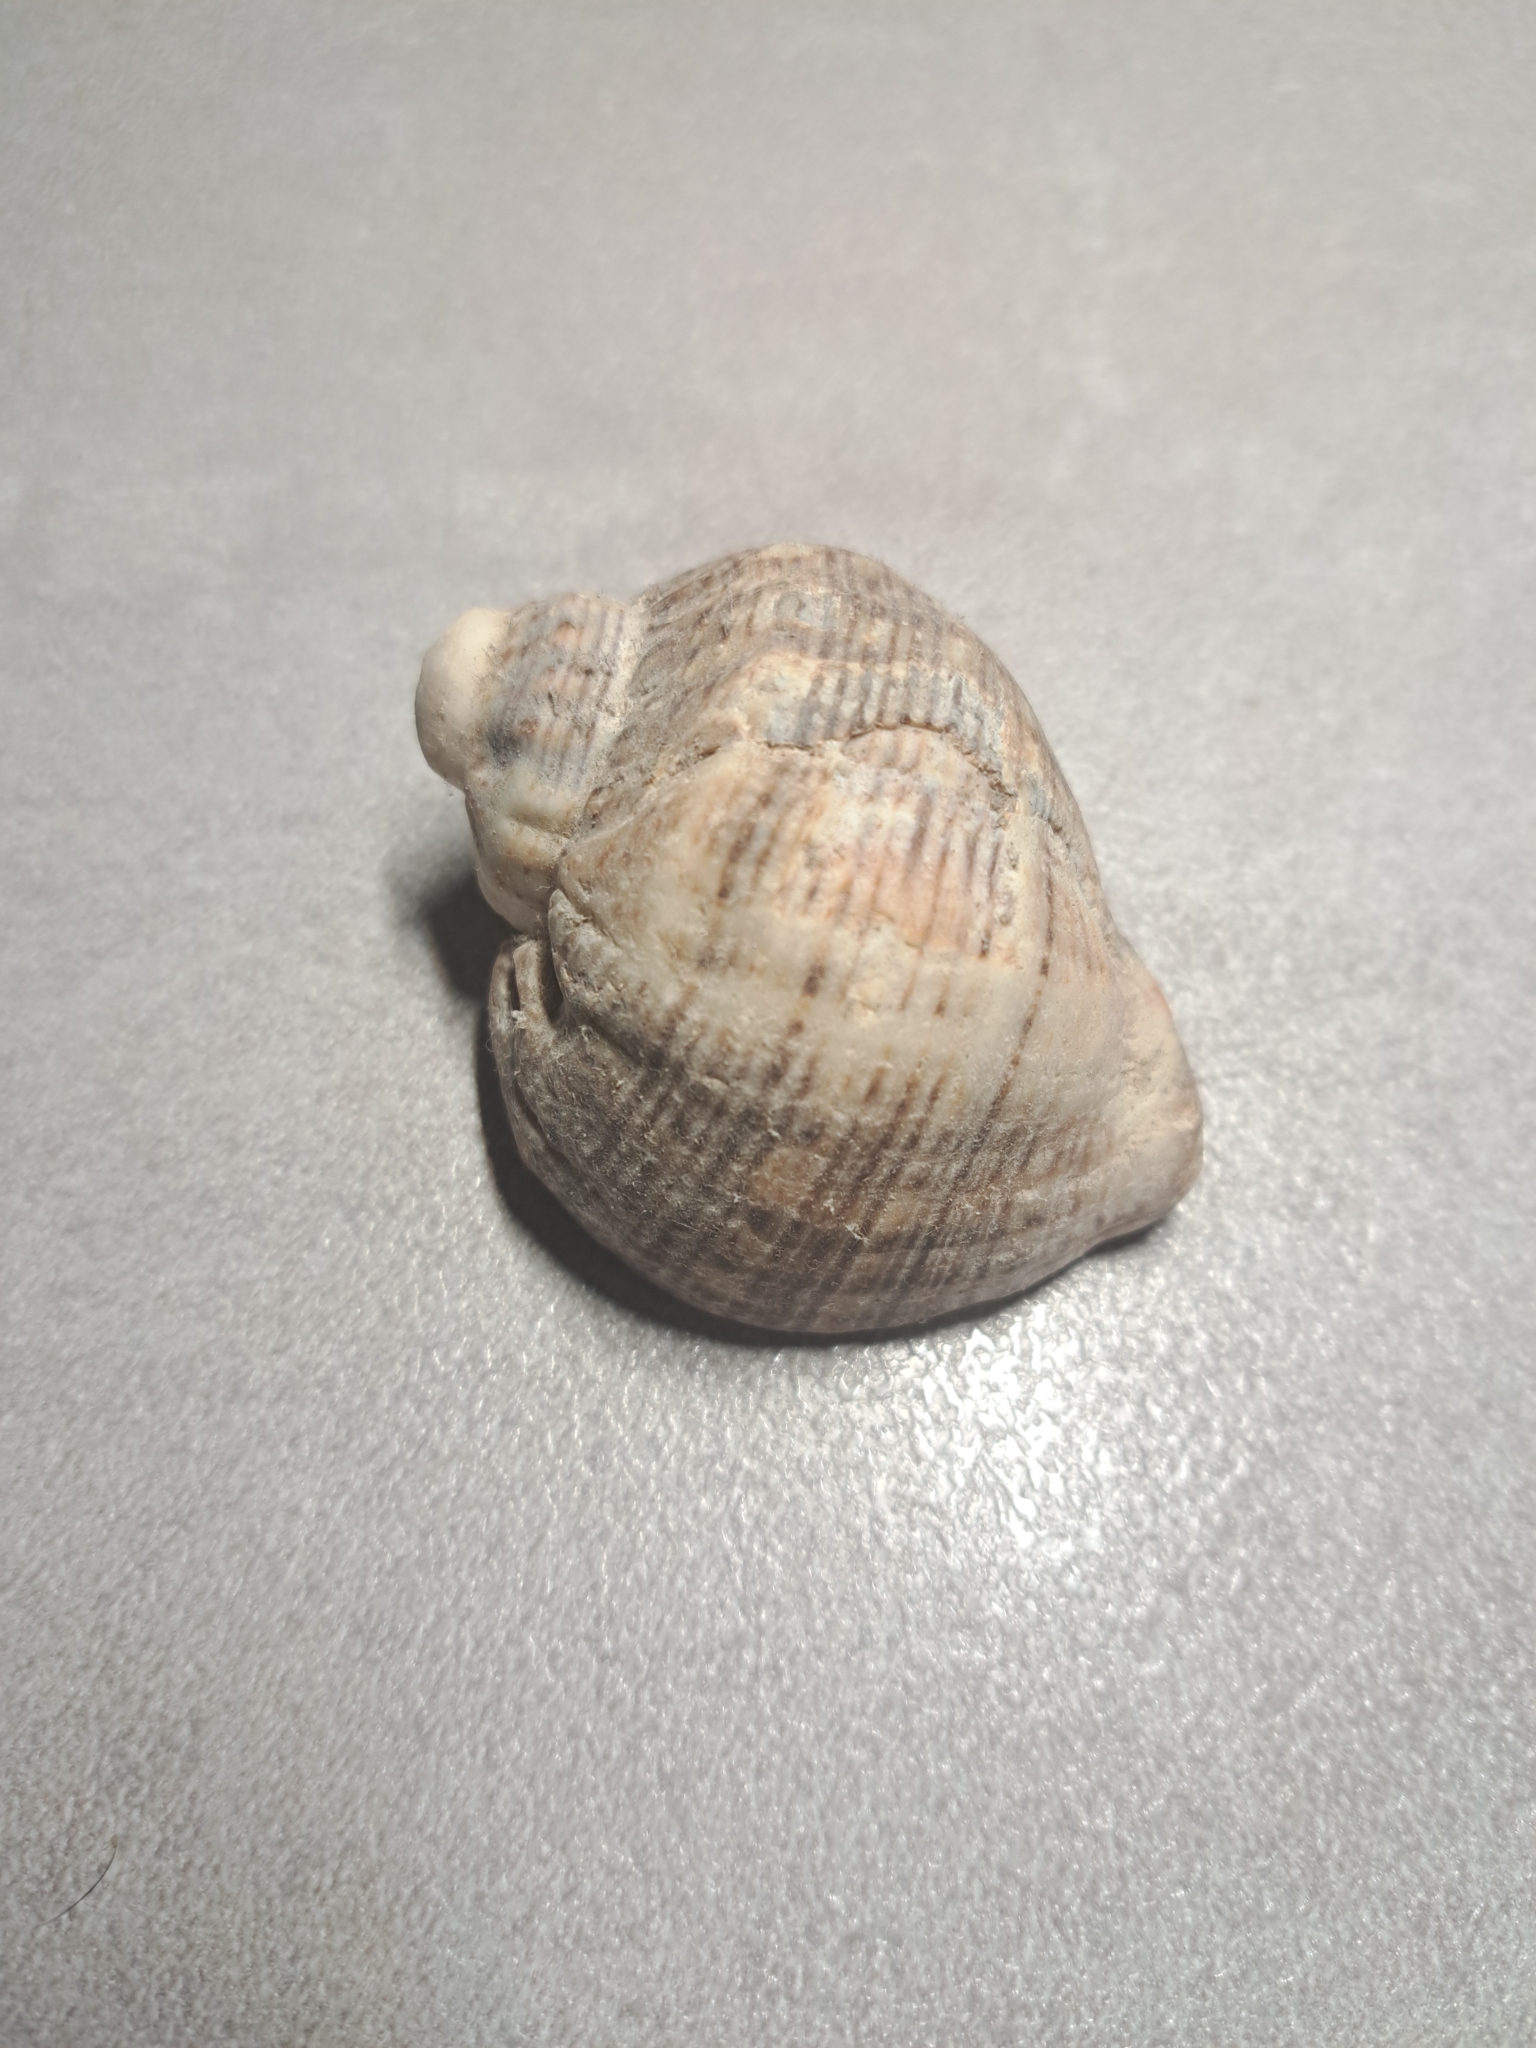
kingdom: Animalia
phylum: Mollusca
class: Gastropoda
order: Neogastropoda
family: Muricidae
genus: Rapana
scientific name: Rapana venosa
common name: Veined rapa whelk
